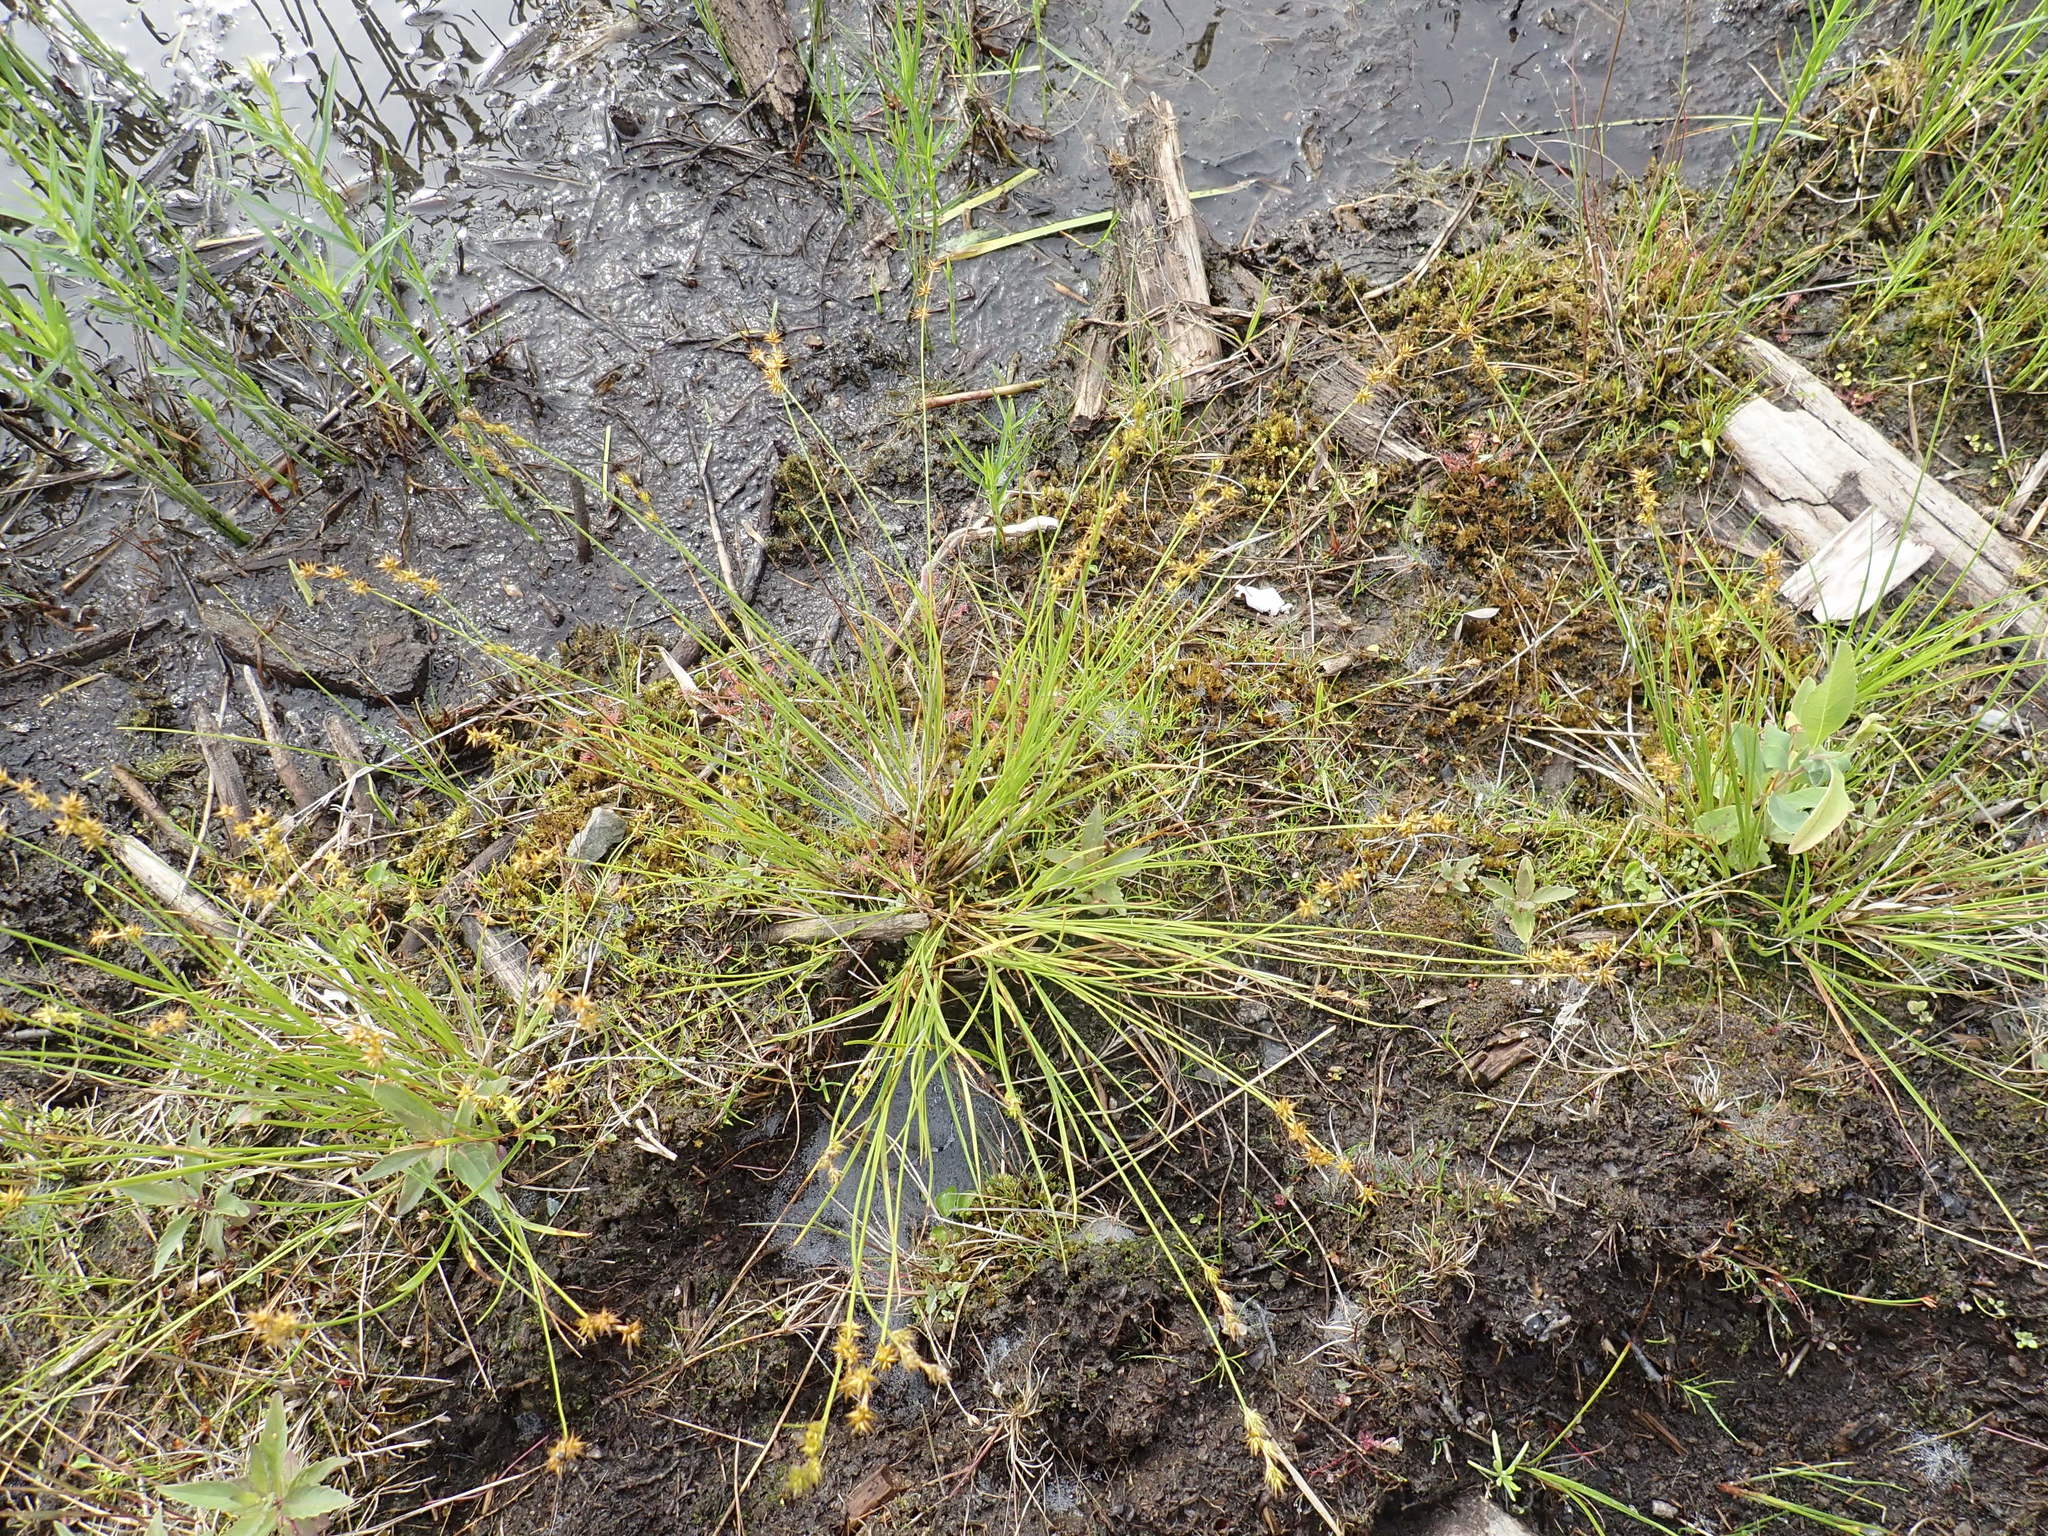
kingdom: Plantae
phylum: Tracheophyta
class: Liliopsida
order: Poales
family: Cyperaceae
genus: Carex
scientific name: Carex echinata
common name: Star sedge
